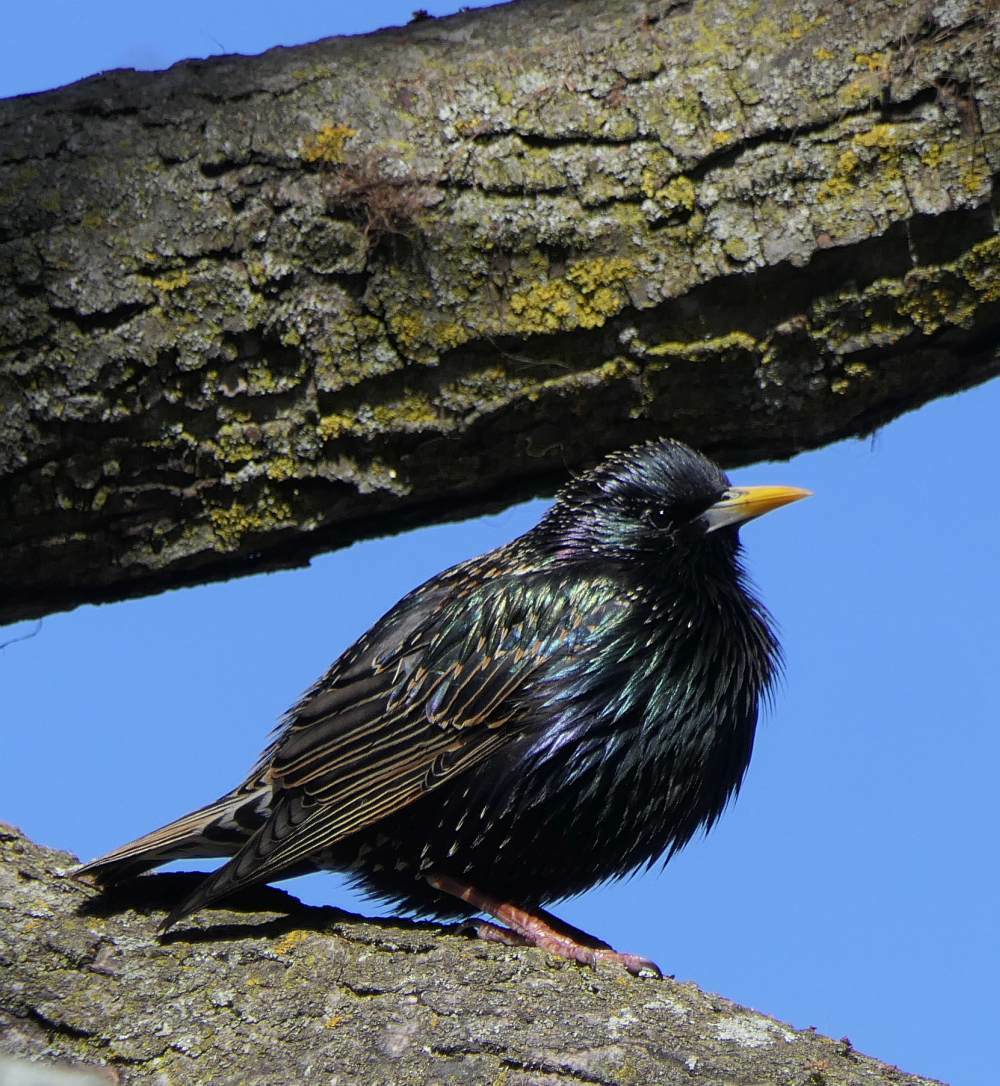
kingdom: Animalia
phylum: Chordata
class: Aves
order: Passeriformes
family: Sturnidae
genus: Sturnus
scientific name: Sturnus vulgaris
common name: Common starling
